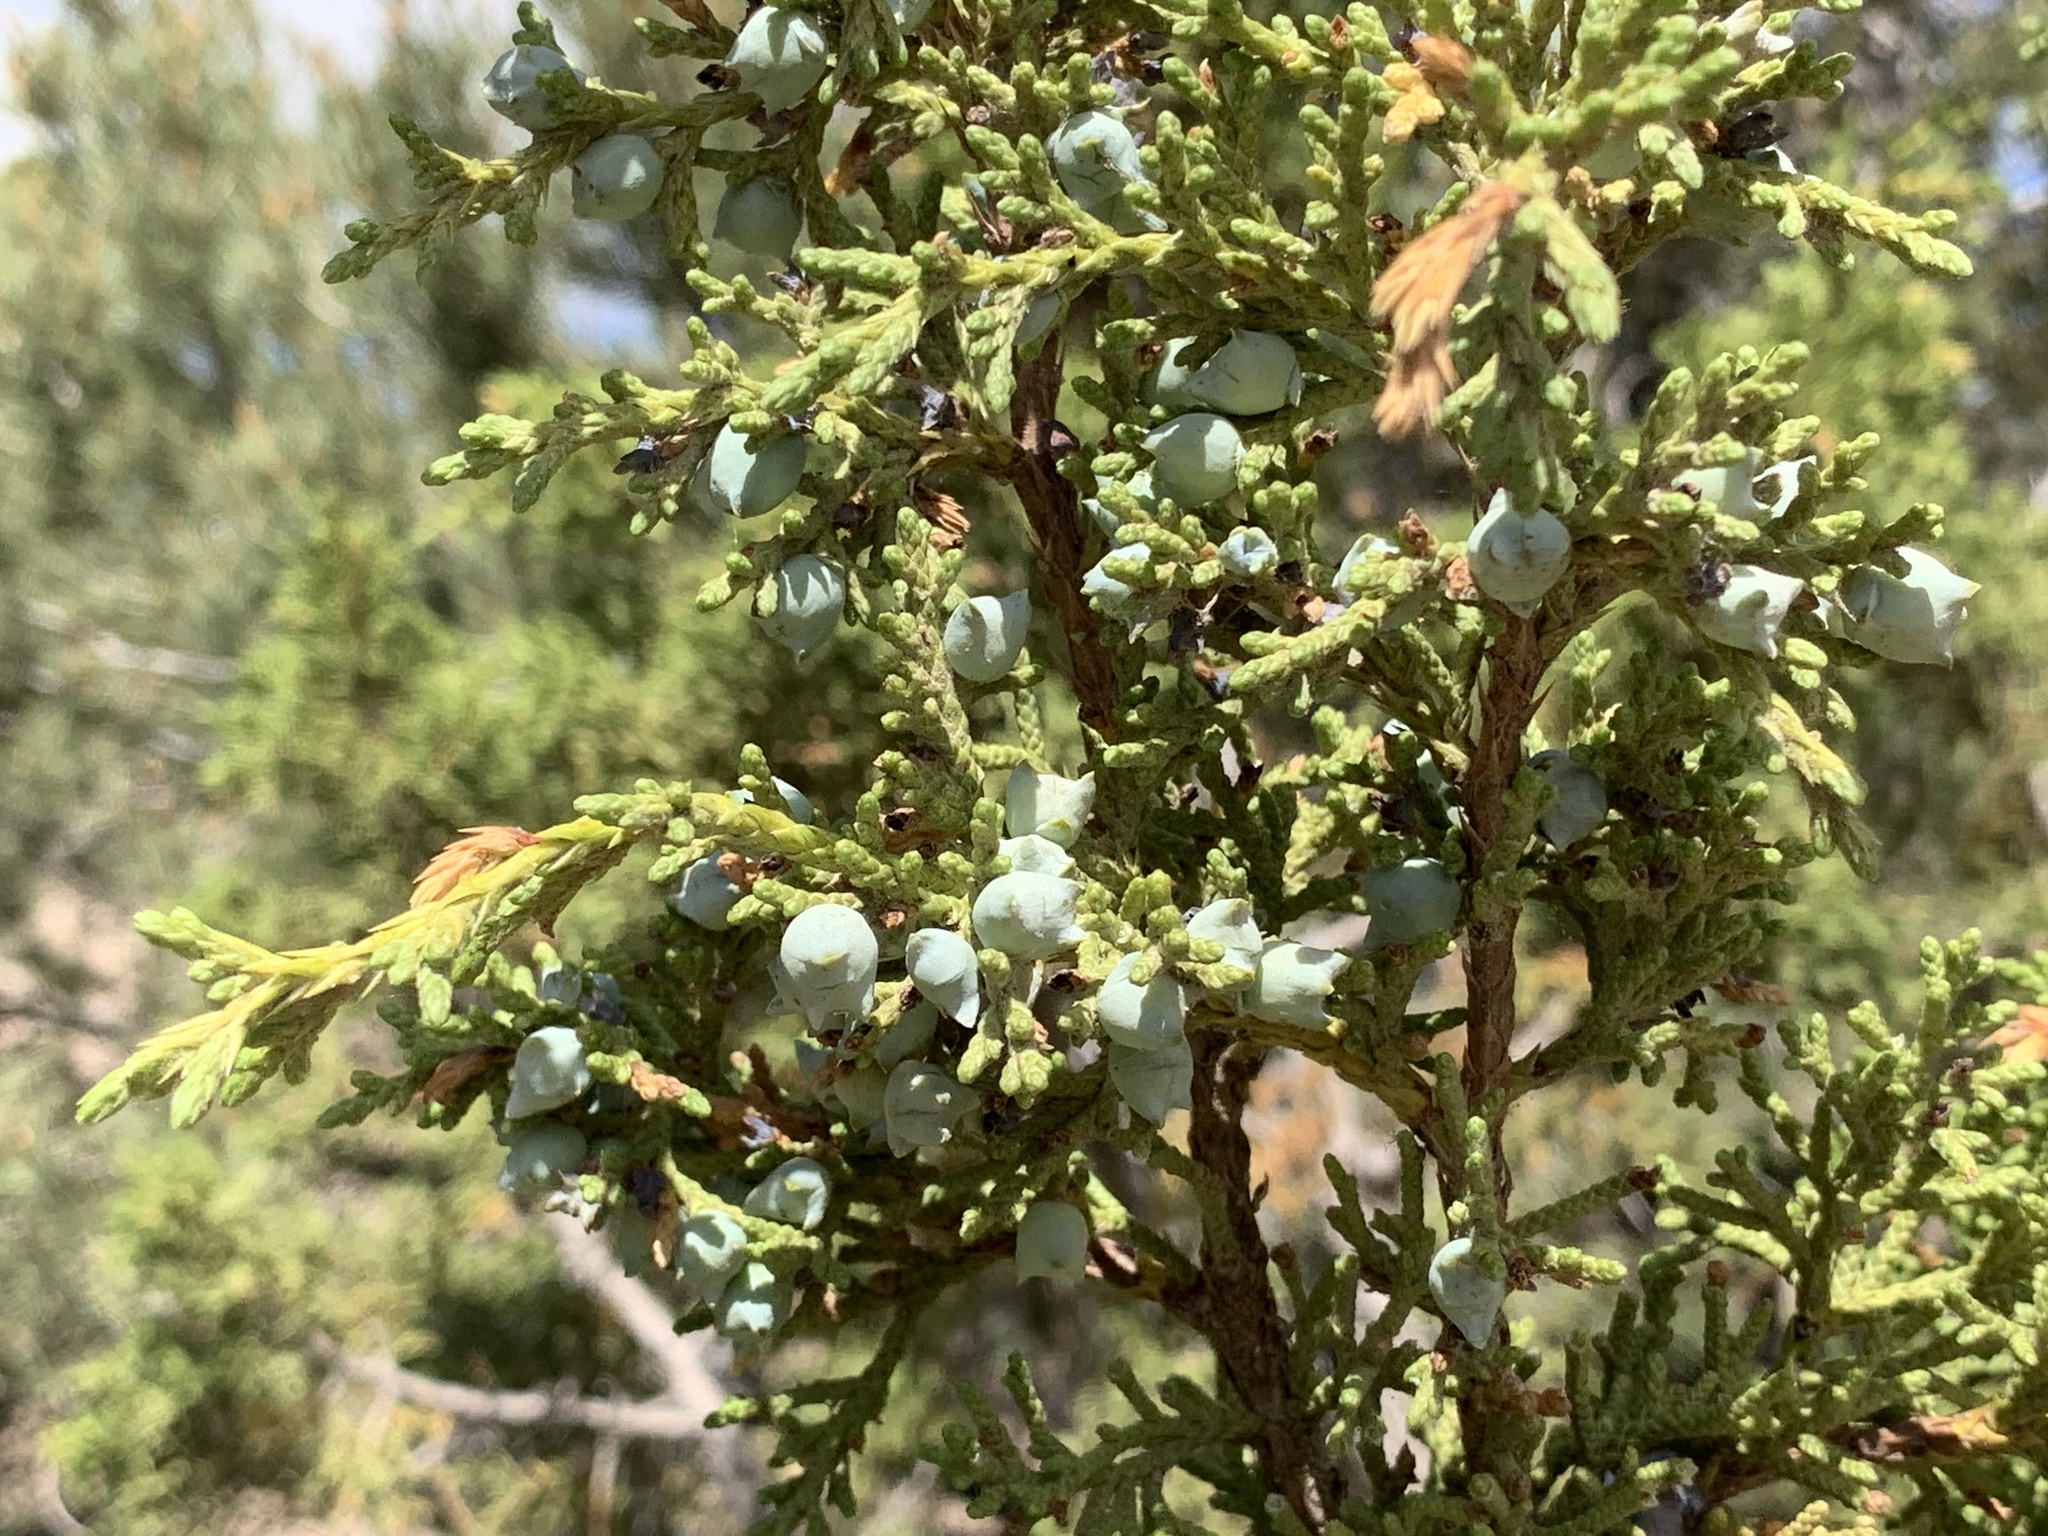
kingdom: Plantae
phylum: Tracheophyta
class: Pinopsida
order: Pinales
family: Cupressaceae
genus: Juniperus
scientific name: Juniperus osteosperma
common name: Utah juniper
